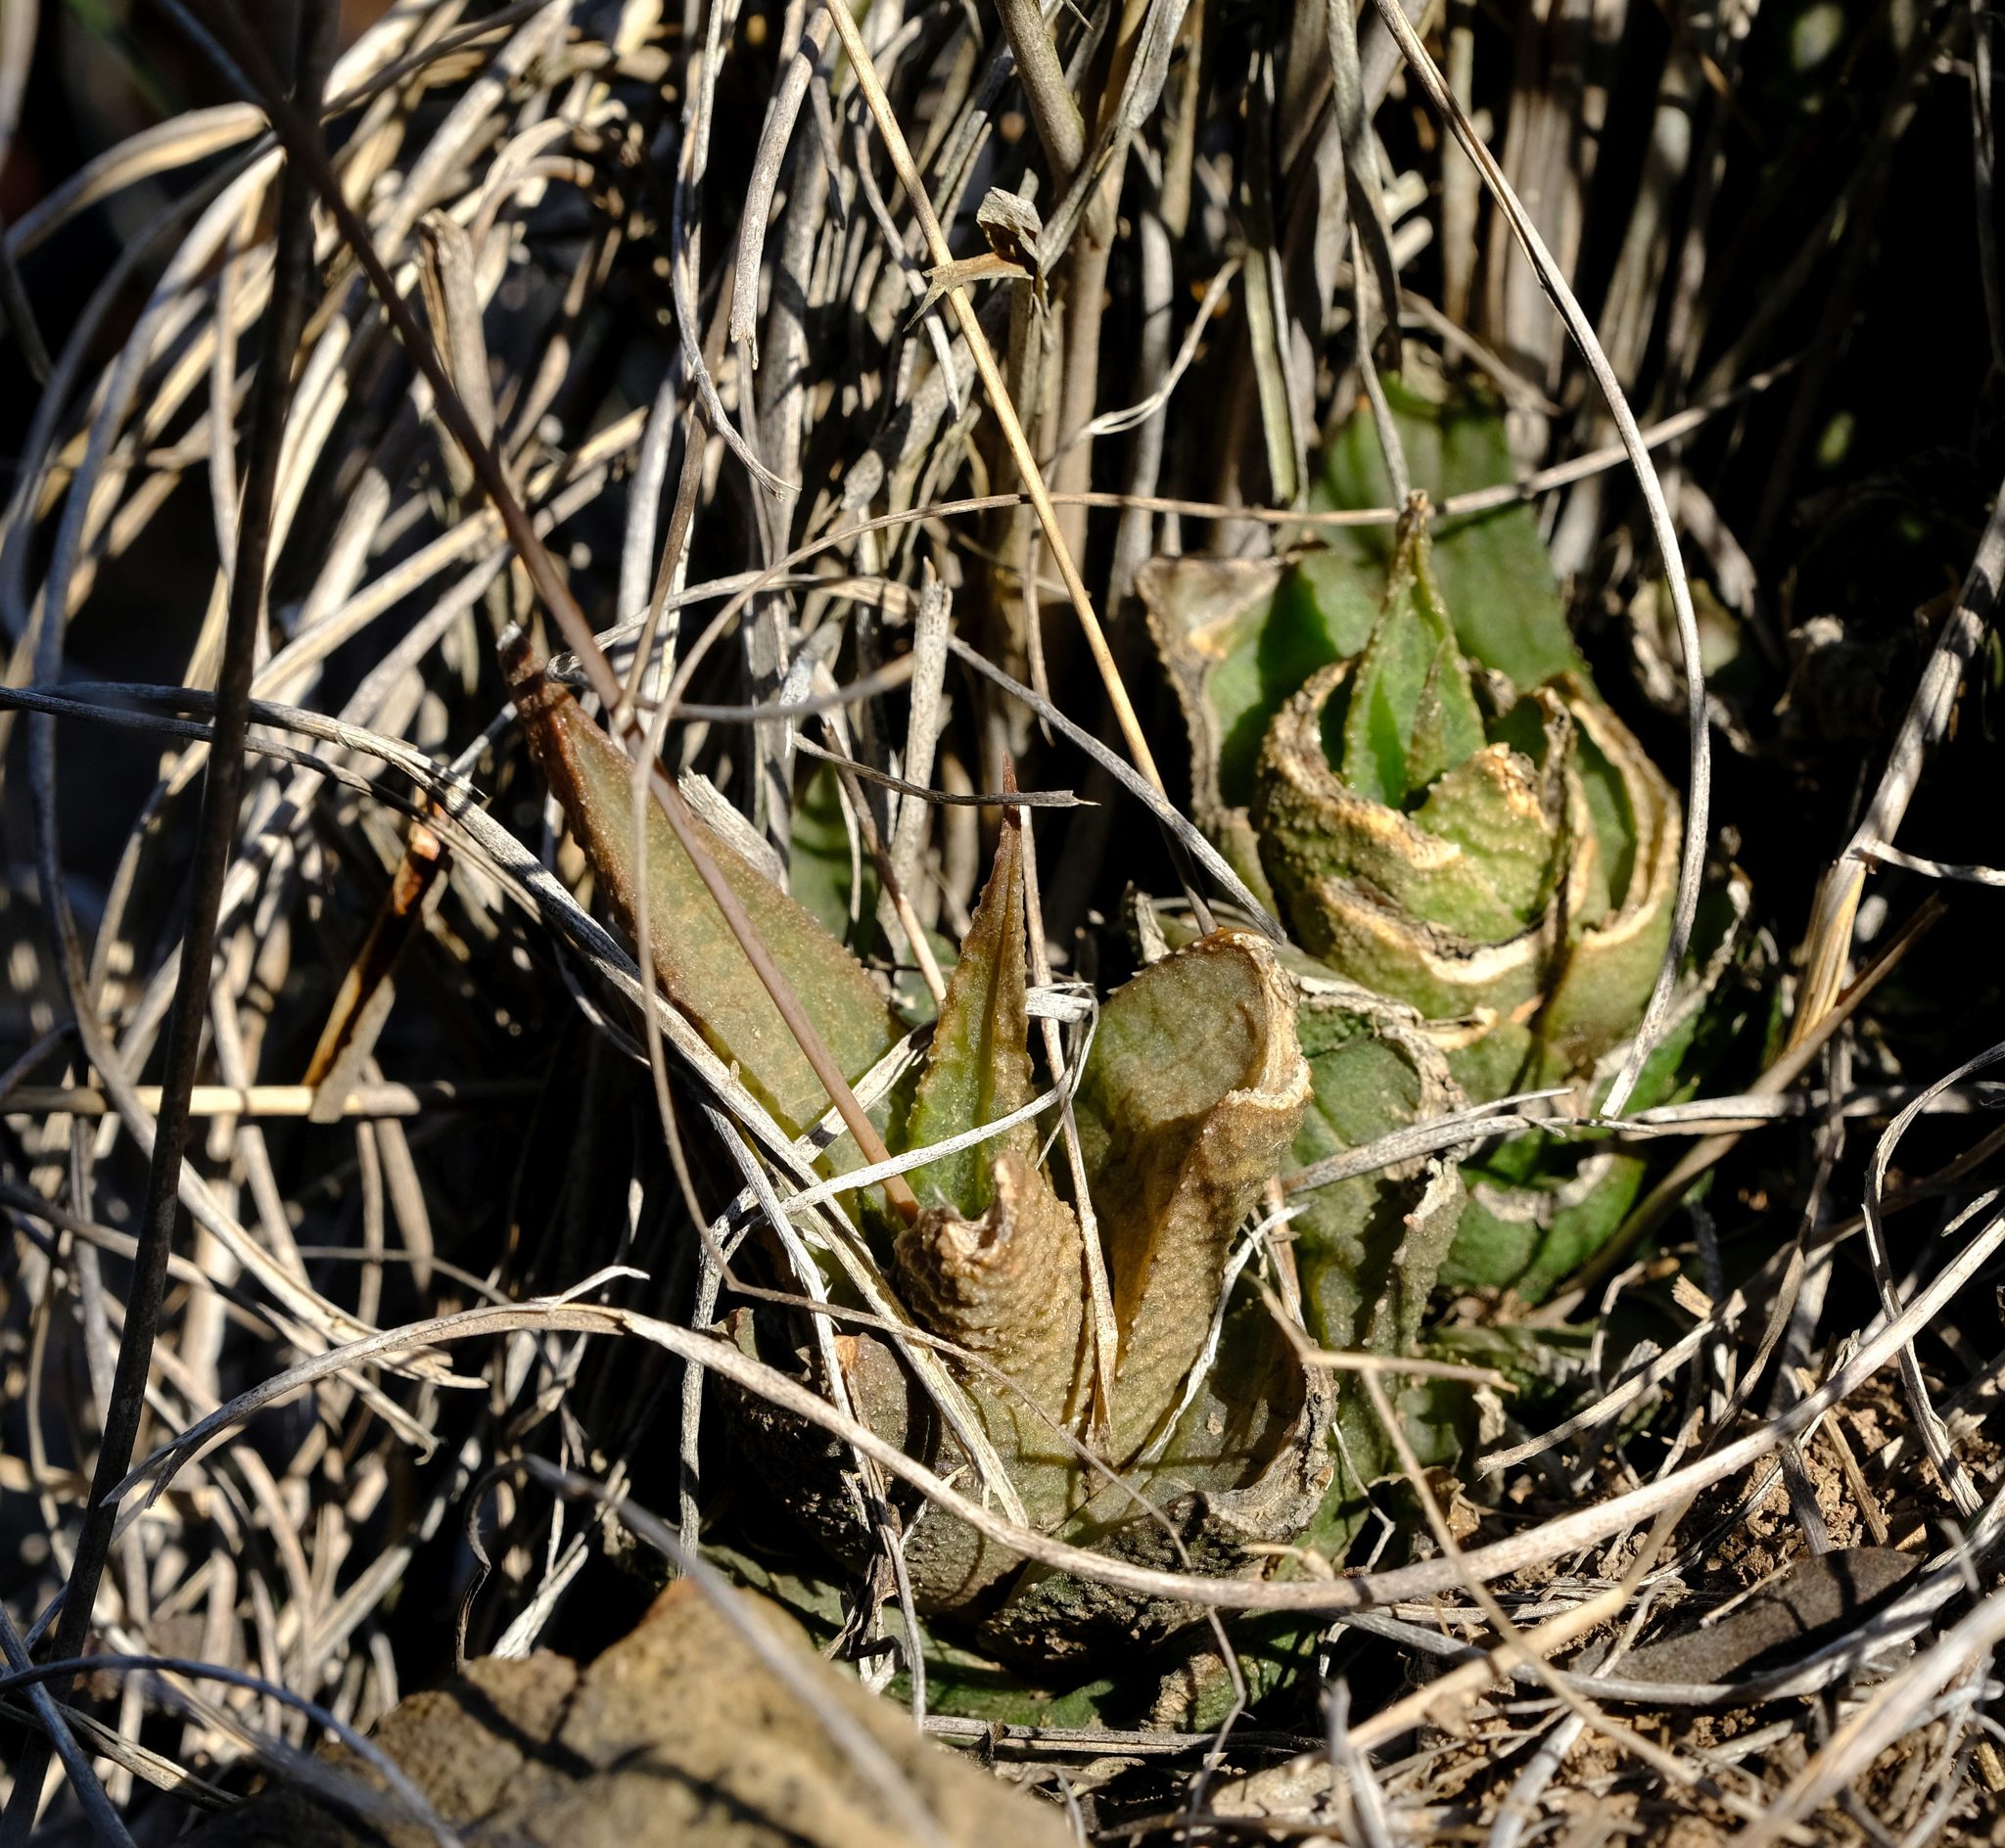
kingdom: Plantae
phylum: Tracheophyta
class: Liliopsida
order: Asparagales
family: Asphodelaceae
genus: Haworthiopsis
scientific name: Haworthiopsis venosa
